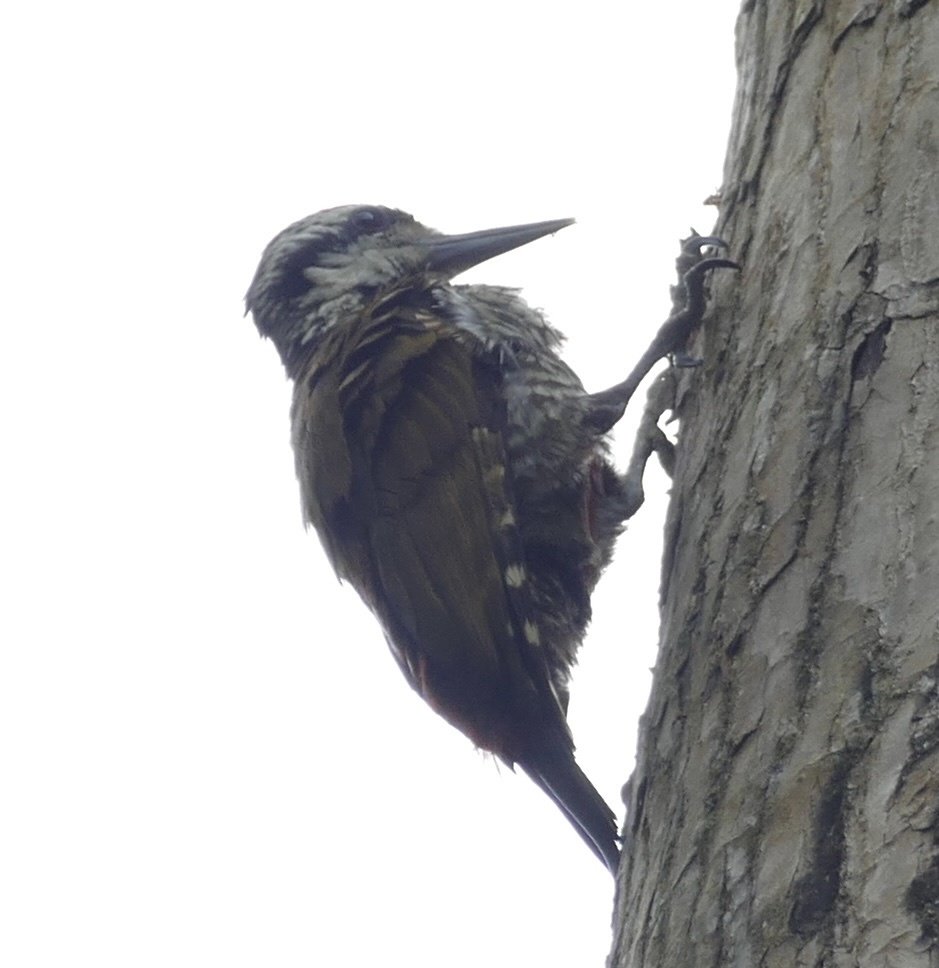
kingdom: Animalia
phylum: Chordata
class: Aves
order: Piciformes
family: Picidae
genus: Chloropicus
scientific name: Chloropicus pyrrhogaster
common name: Fire-bellied woodpecker
